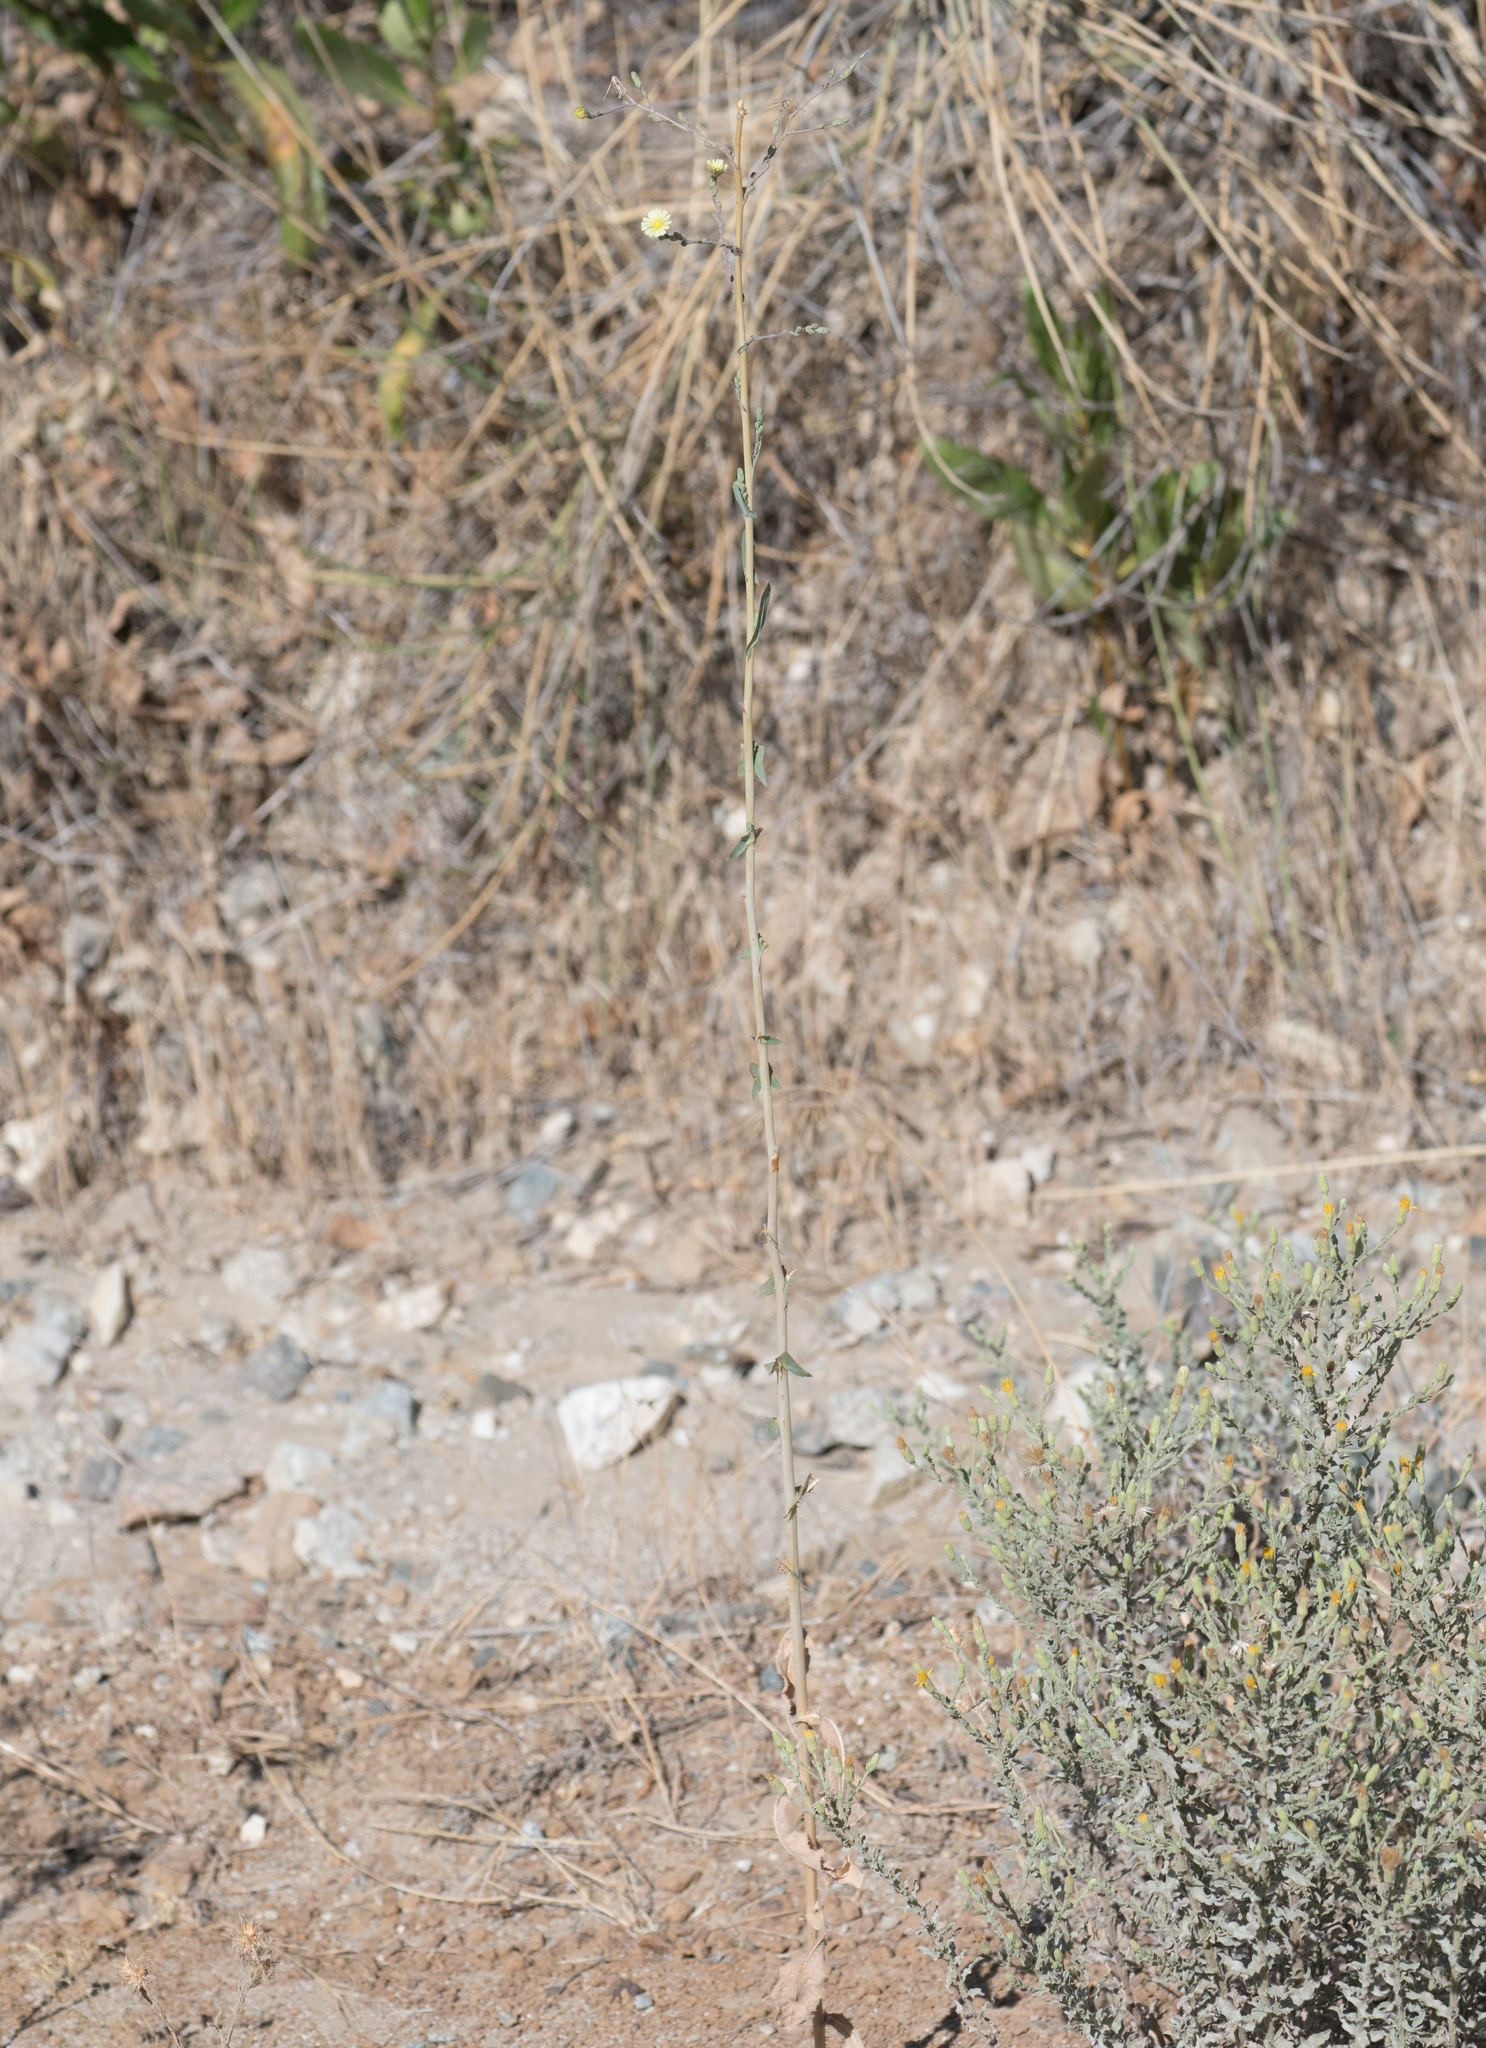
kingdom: Plantae
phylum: Tracheophyta
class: Magnoliopsida
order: Asterales
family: Asteraceae
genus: Lactuca
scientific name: Lactuca serriola
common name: Prickly lettuce
